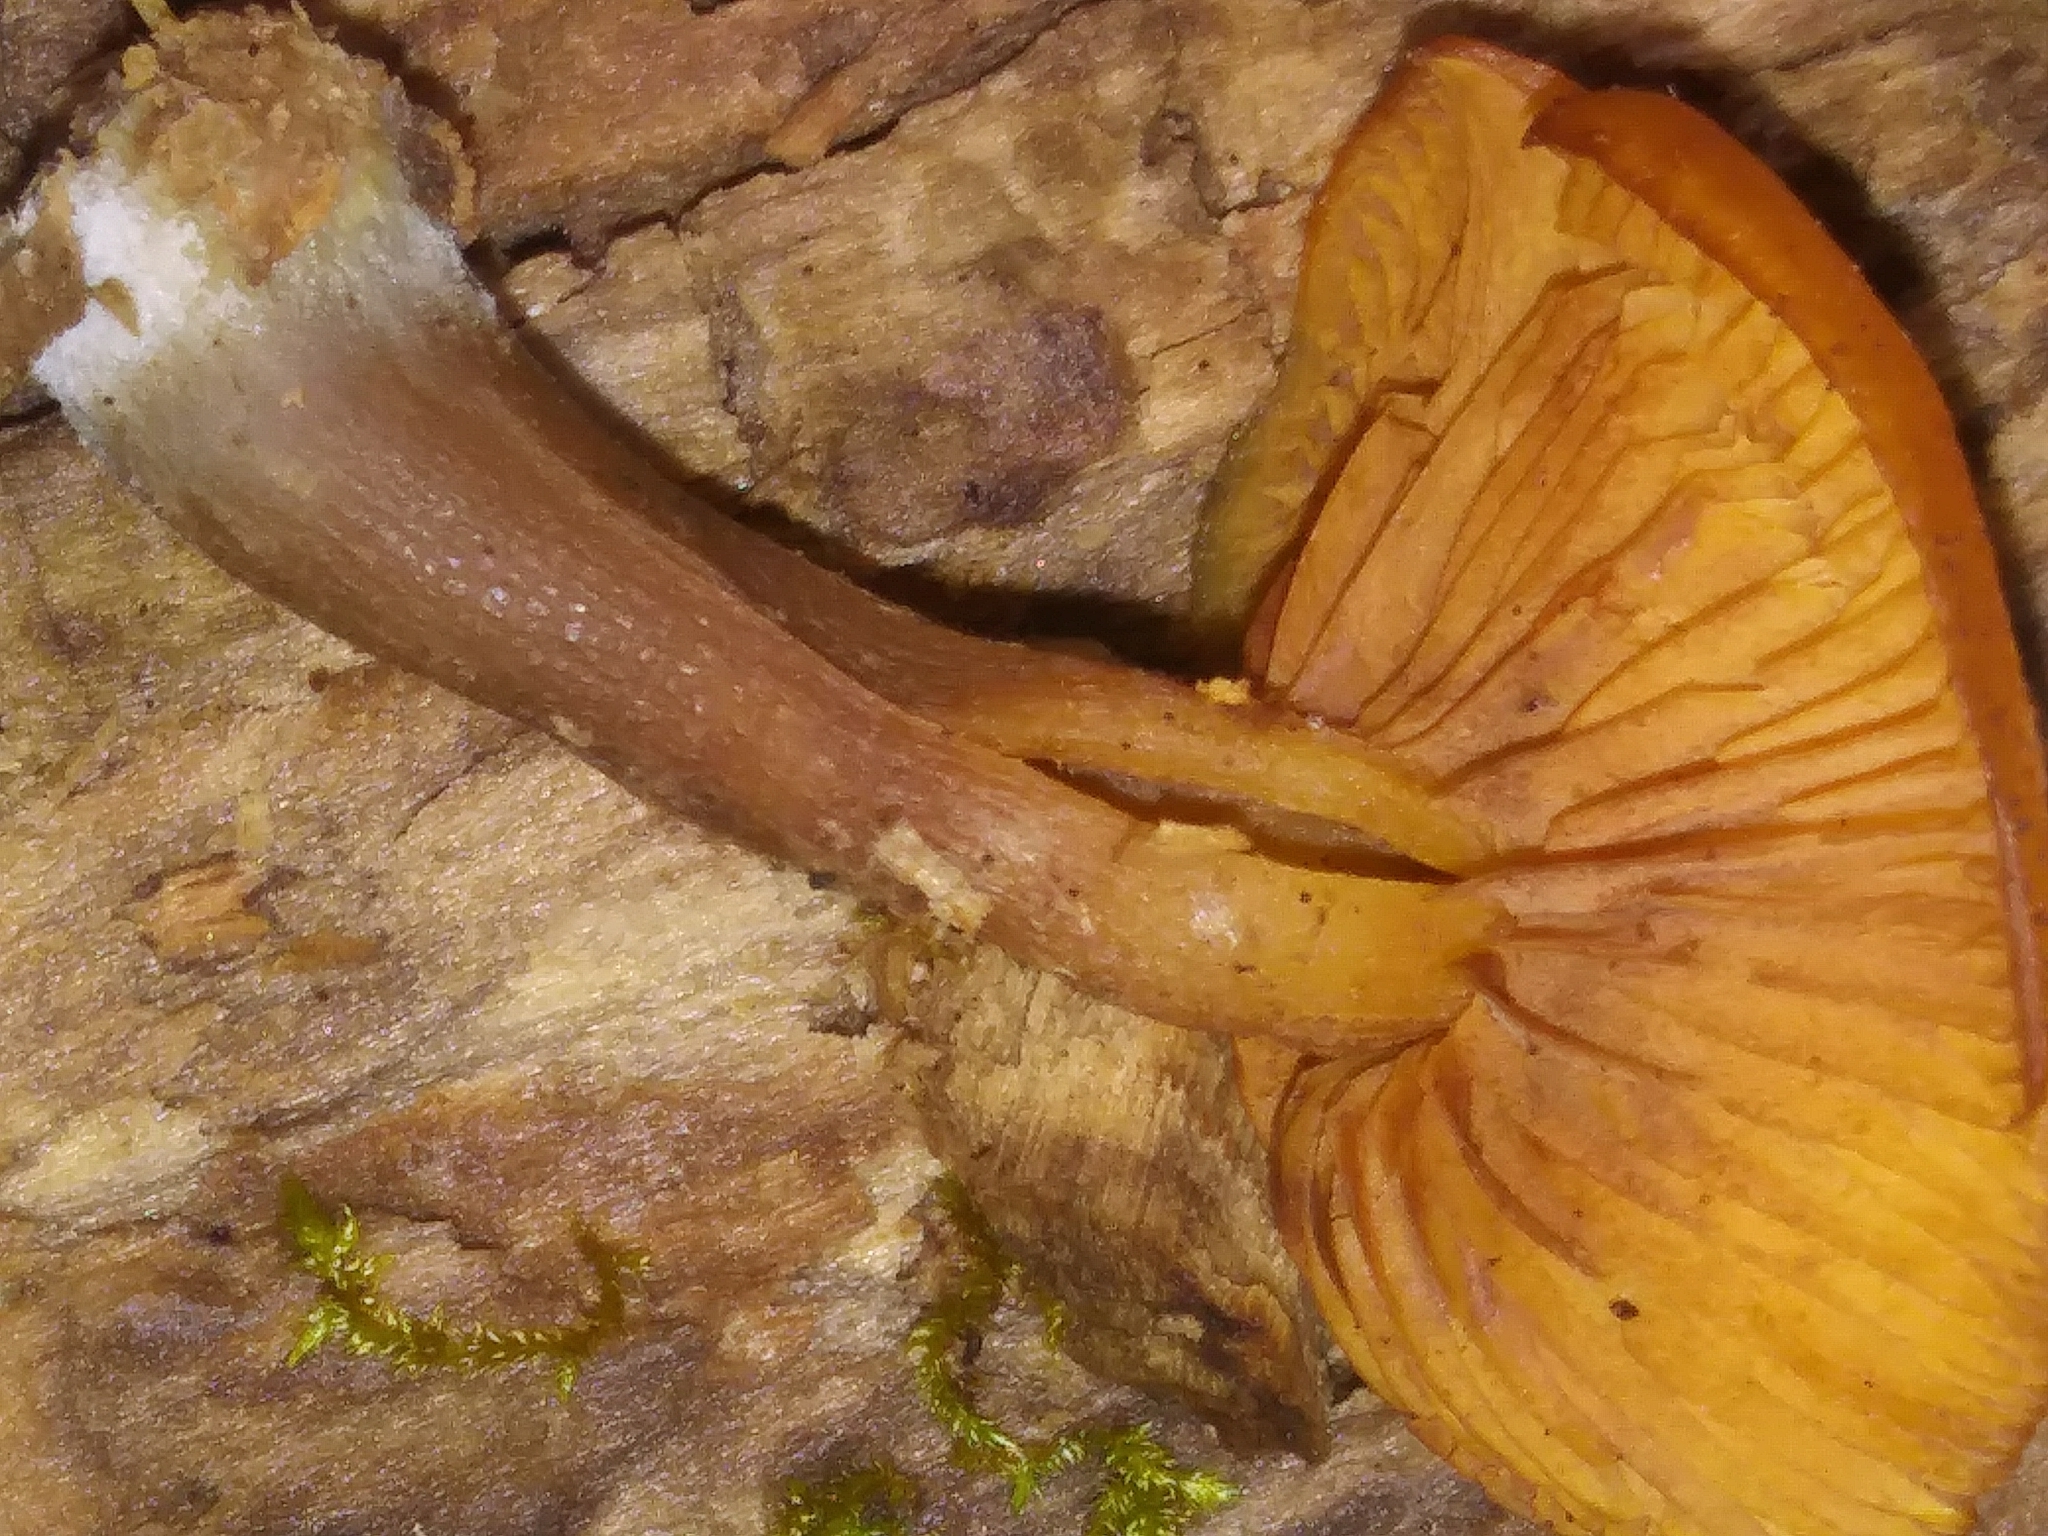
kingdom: Fungi
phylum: Basidiomycota
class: Agaricomycetes
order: Agaricales
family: Hymenogastraceae
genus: Galerina
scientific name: Galerina marginata
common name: Funeral bell
